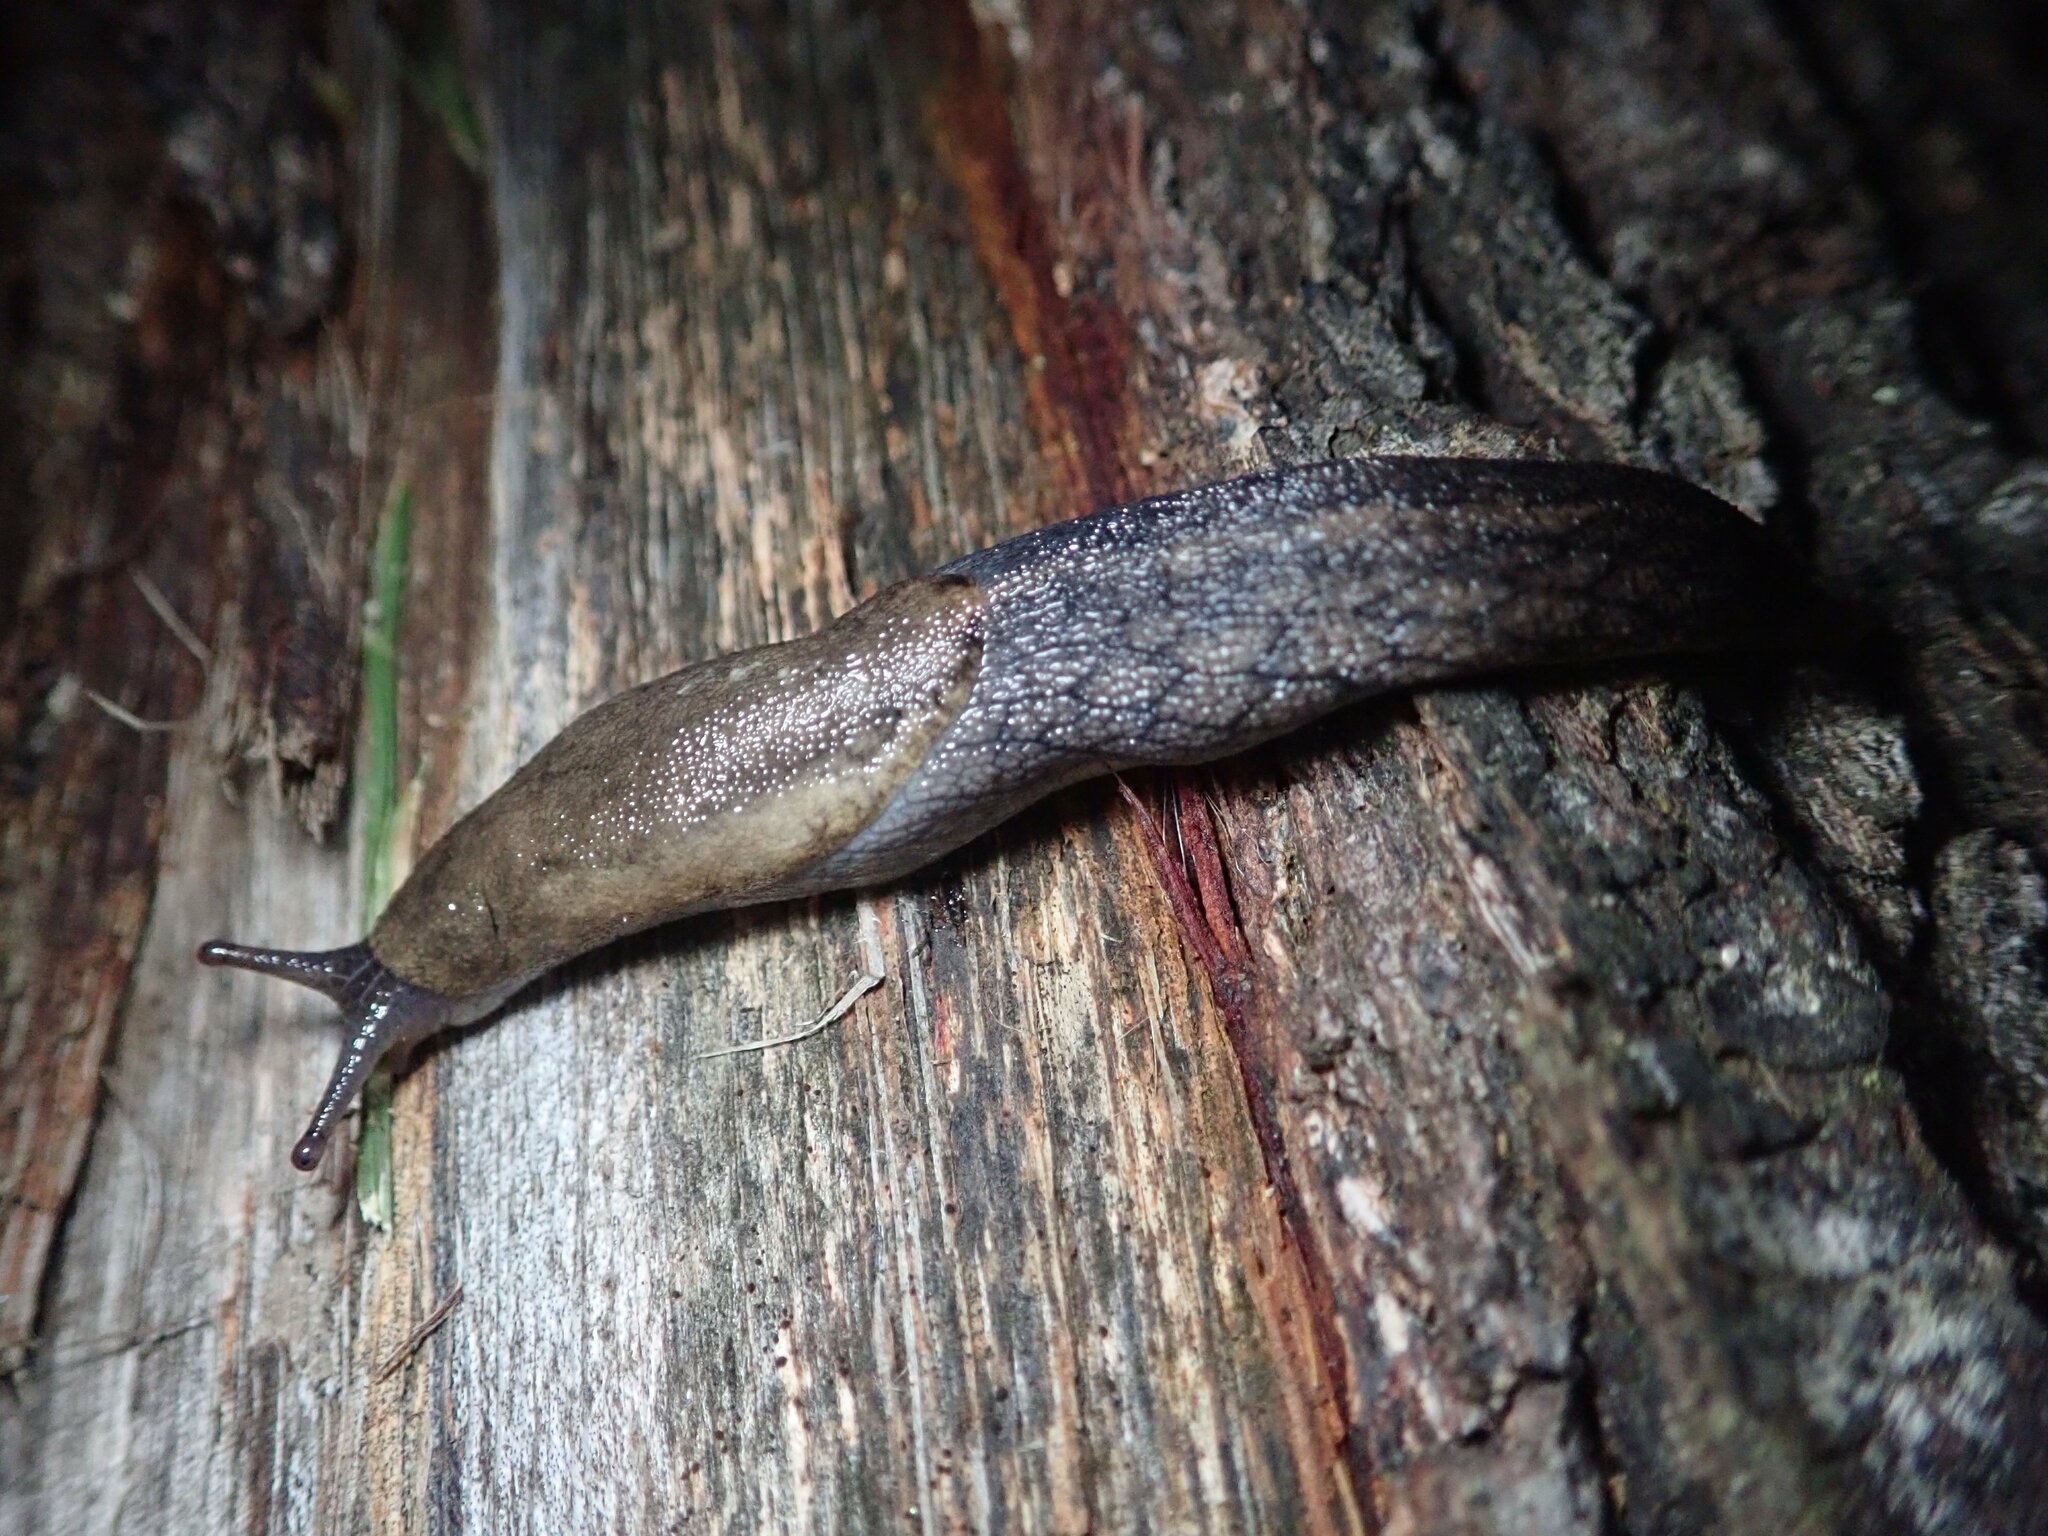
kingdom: Animalia
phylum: Mollusca
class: Gastropoda
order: Stylommatophora
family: Ariolimacidae
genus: Prophysaon
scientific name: Prophysaon andersonii
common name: Reticulate taildropper
